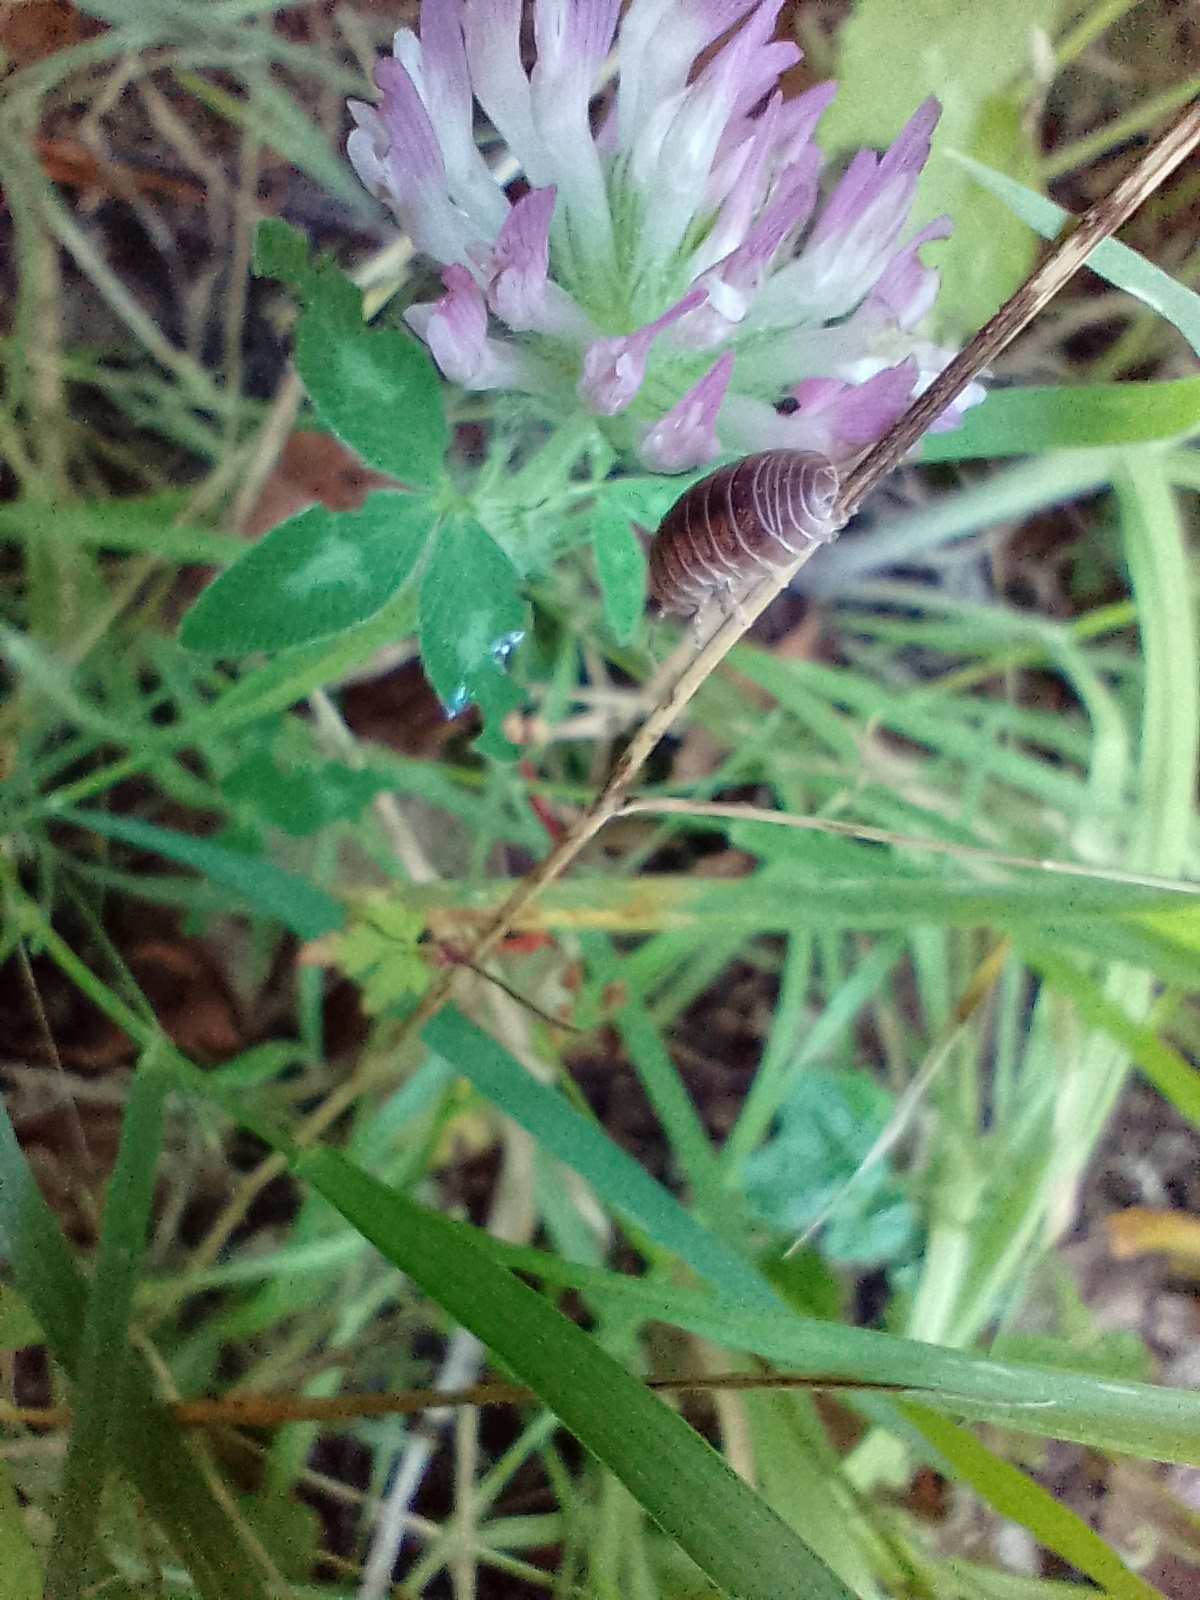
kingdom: Animalia
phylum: Arthropoda
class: Malacostraca
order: Isopoda
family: Armadillidiidae
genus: Armadillidium
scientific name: Armadillidium vulgare
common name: Common pill woodlouse
